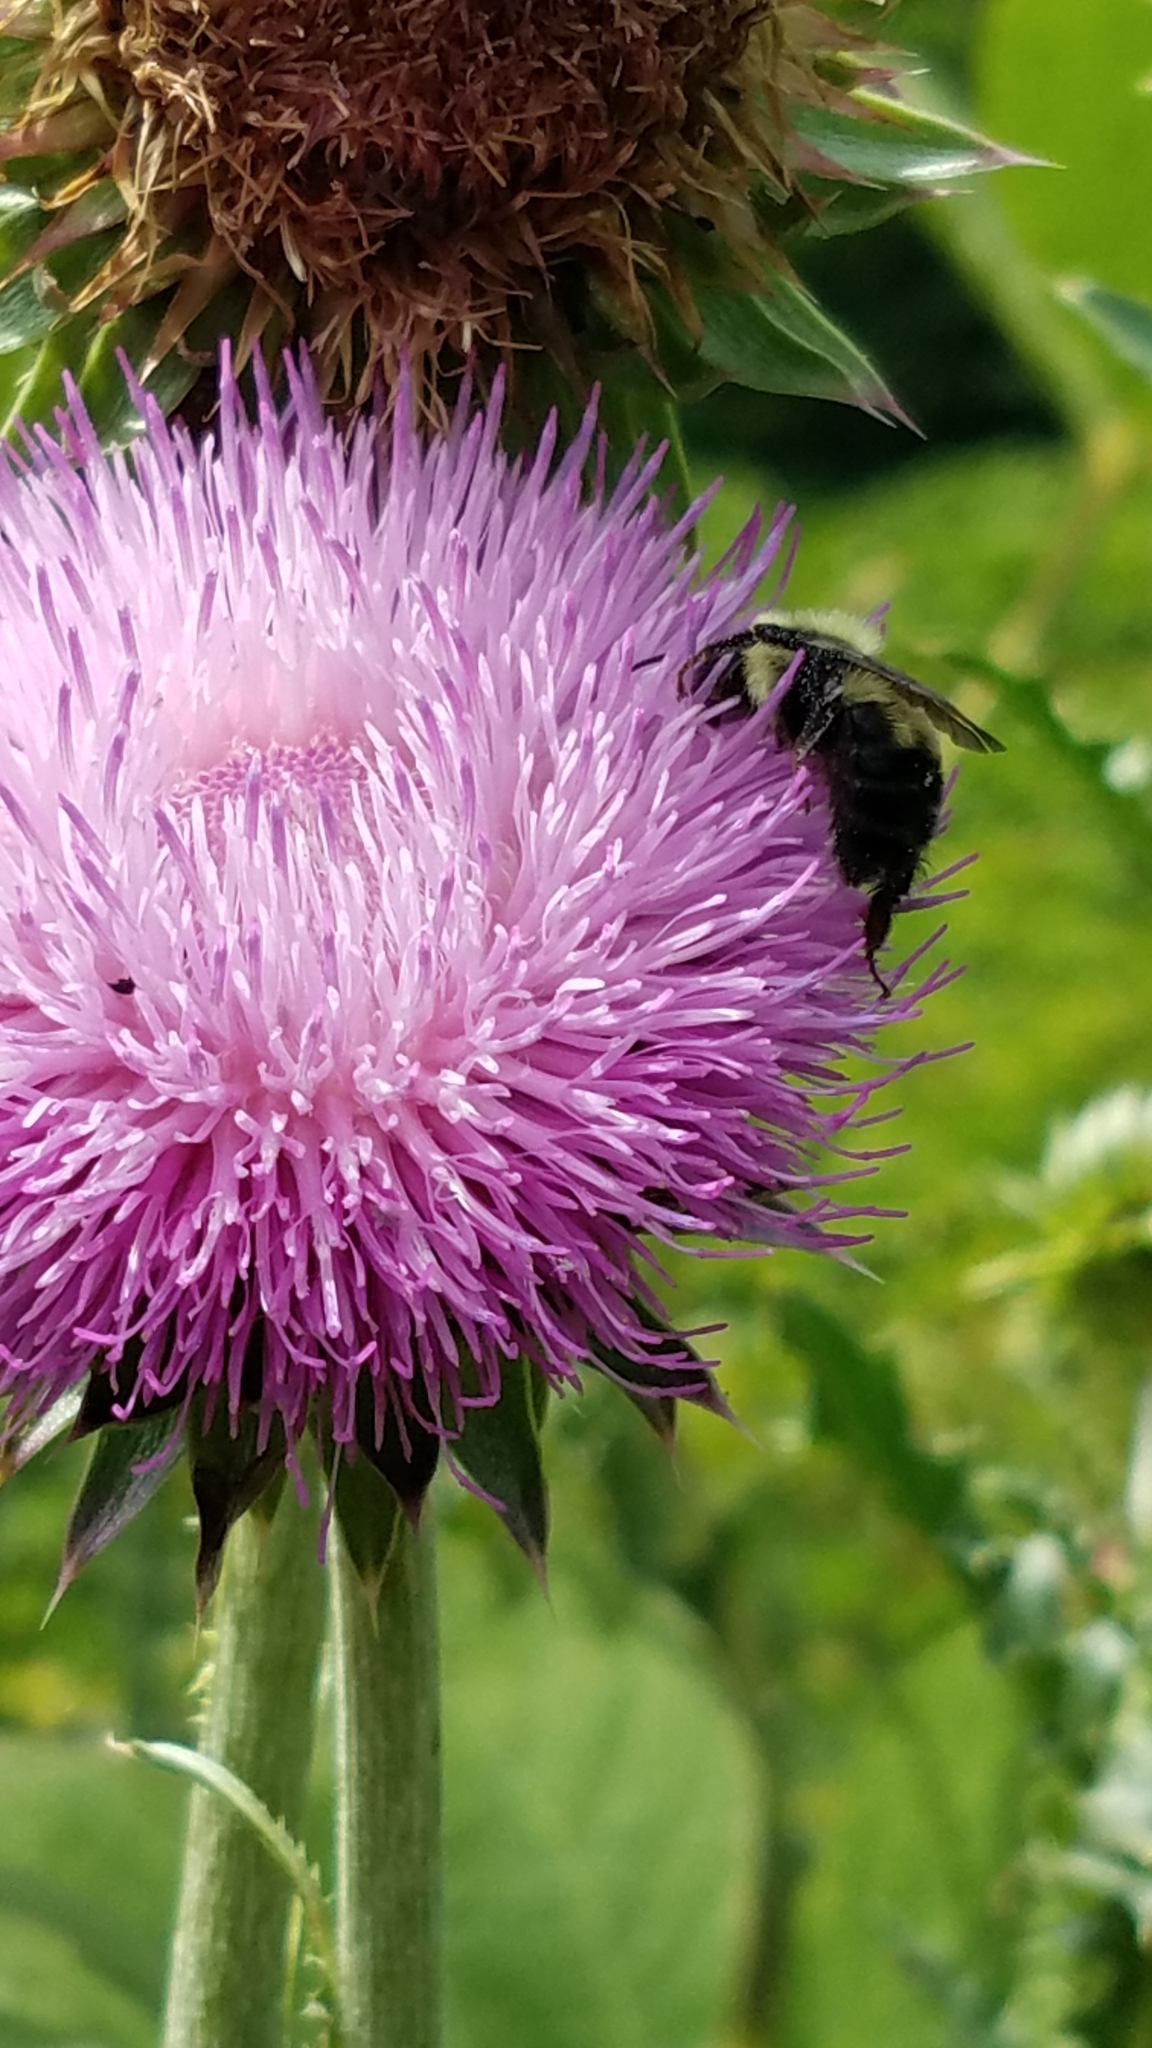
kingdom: Plantae
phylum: Tracheophyta
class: Magnoliopsida
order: Asterales
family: Asteraceae
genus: Carduus
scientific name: Carduus nutans
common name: Musk thistle
